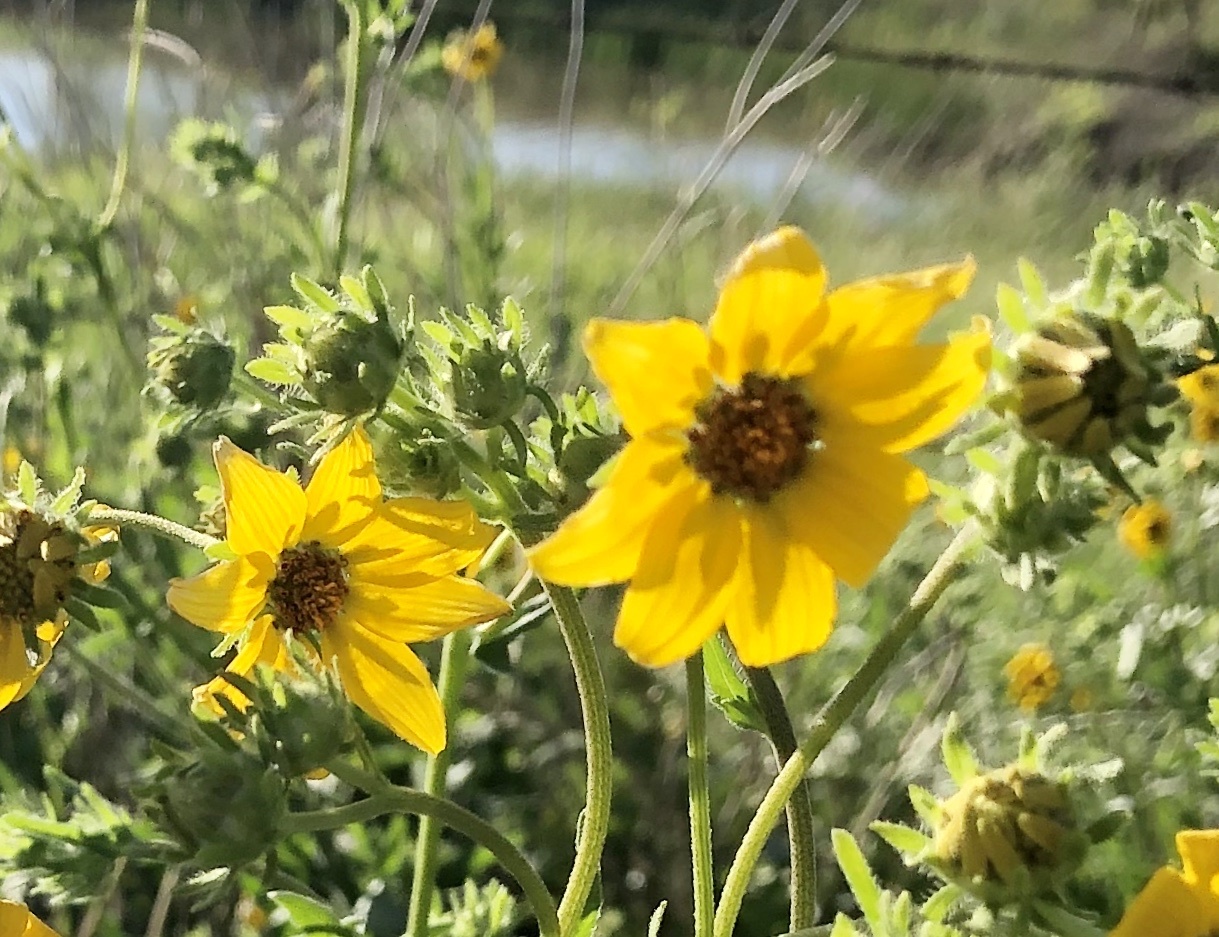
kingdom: Plantae
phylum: Tracheophyta
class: Magnoliopsida
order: Asterales
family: Asteraceae
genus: Engelmannia
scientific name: Engelmannia peristenia
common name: Engelmann's daisy
